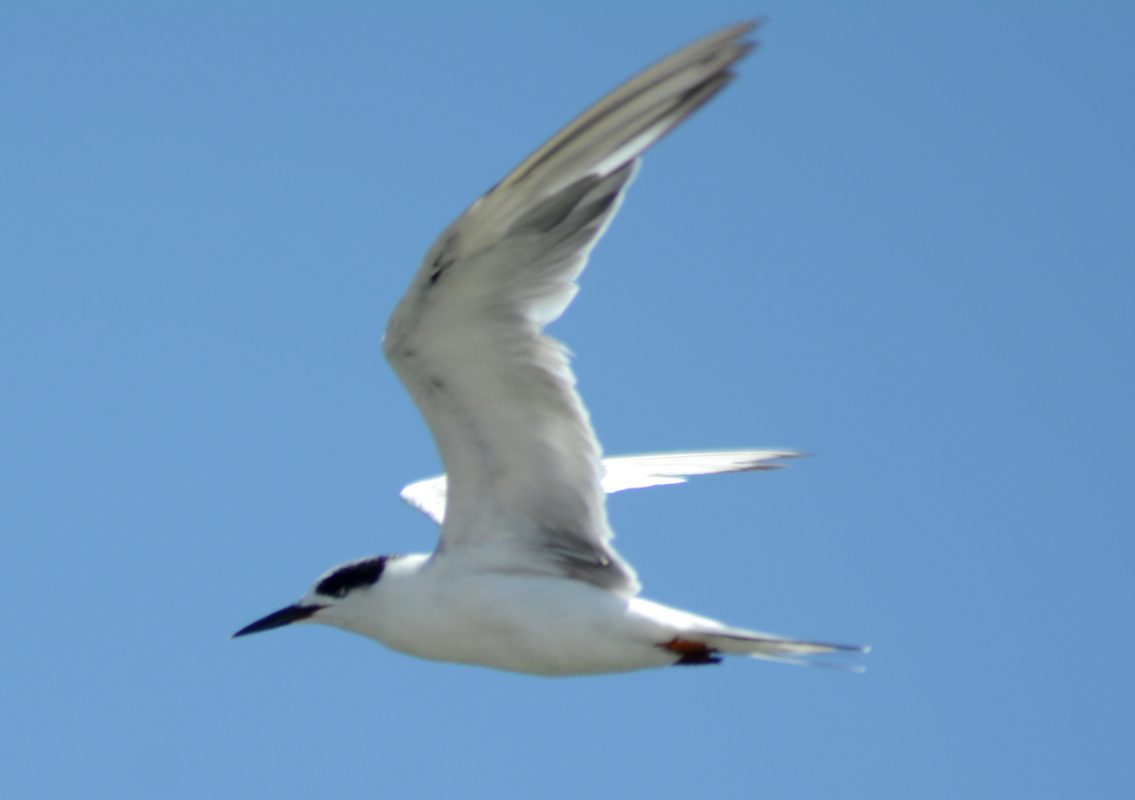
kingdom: Animalia
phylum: Chordata
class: Aves
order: Charadriiformes
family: Laridae
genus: Sterna
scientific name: Sterna forsteri
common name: Forster's tern
